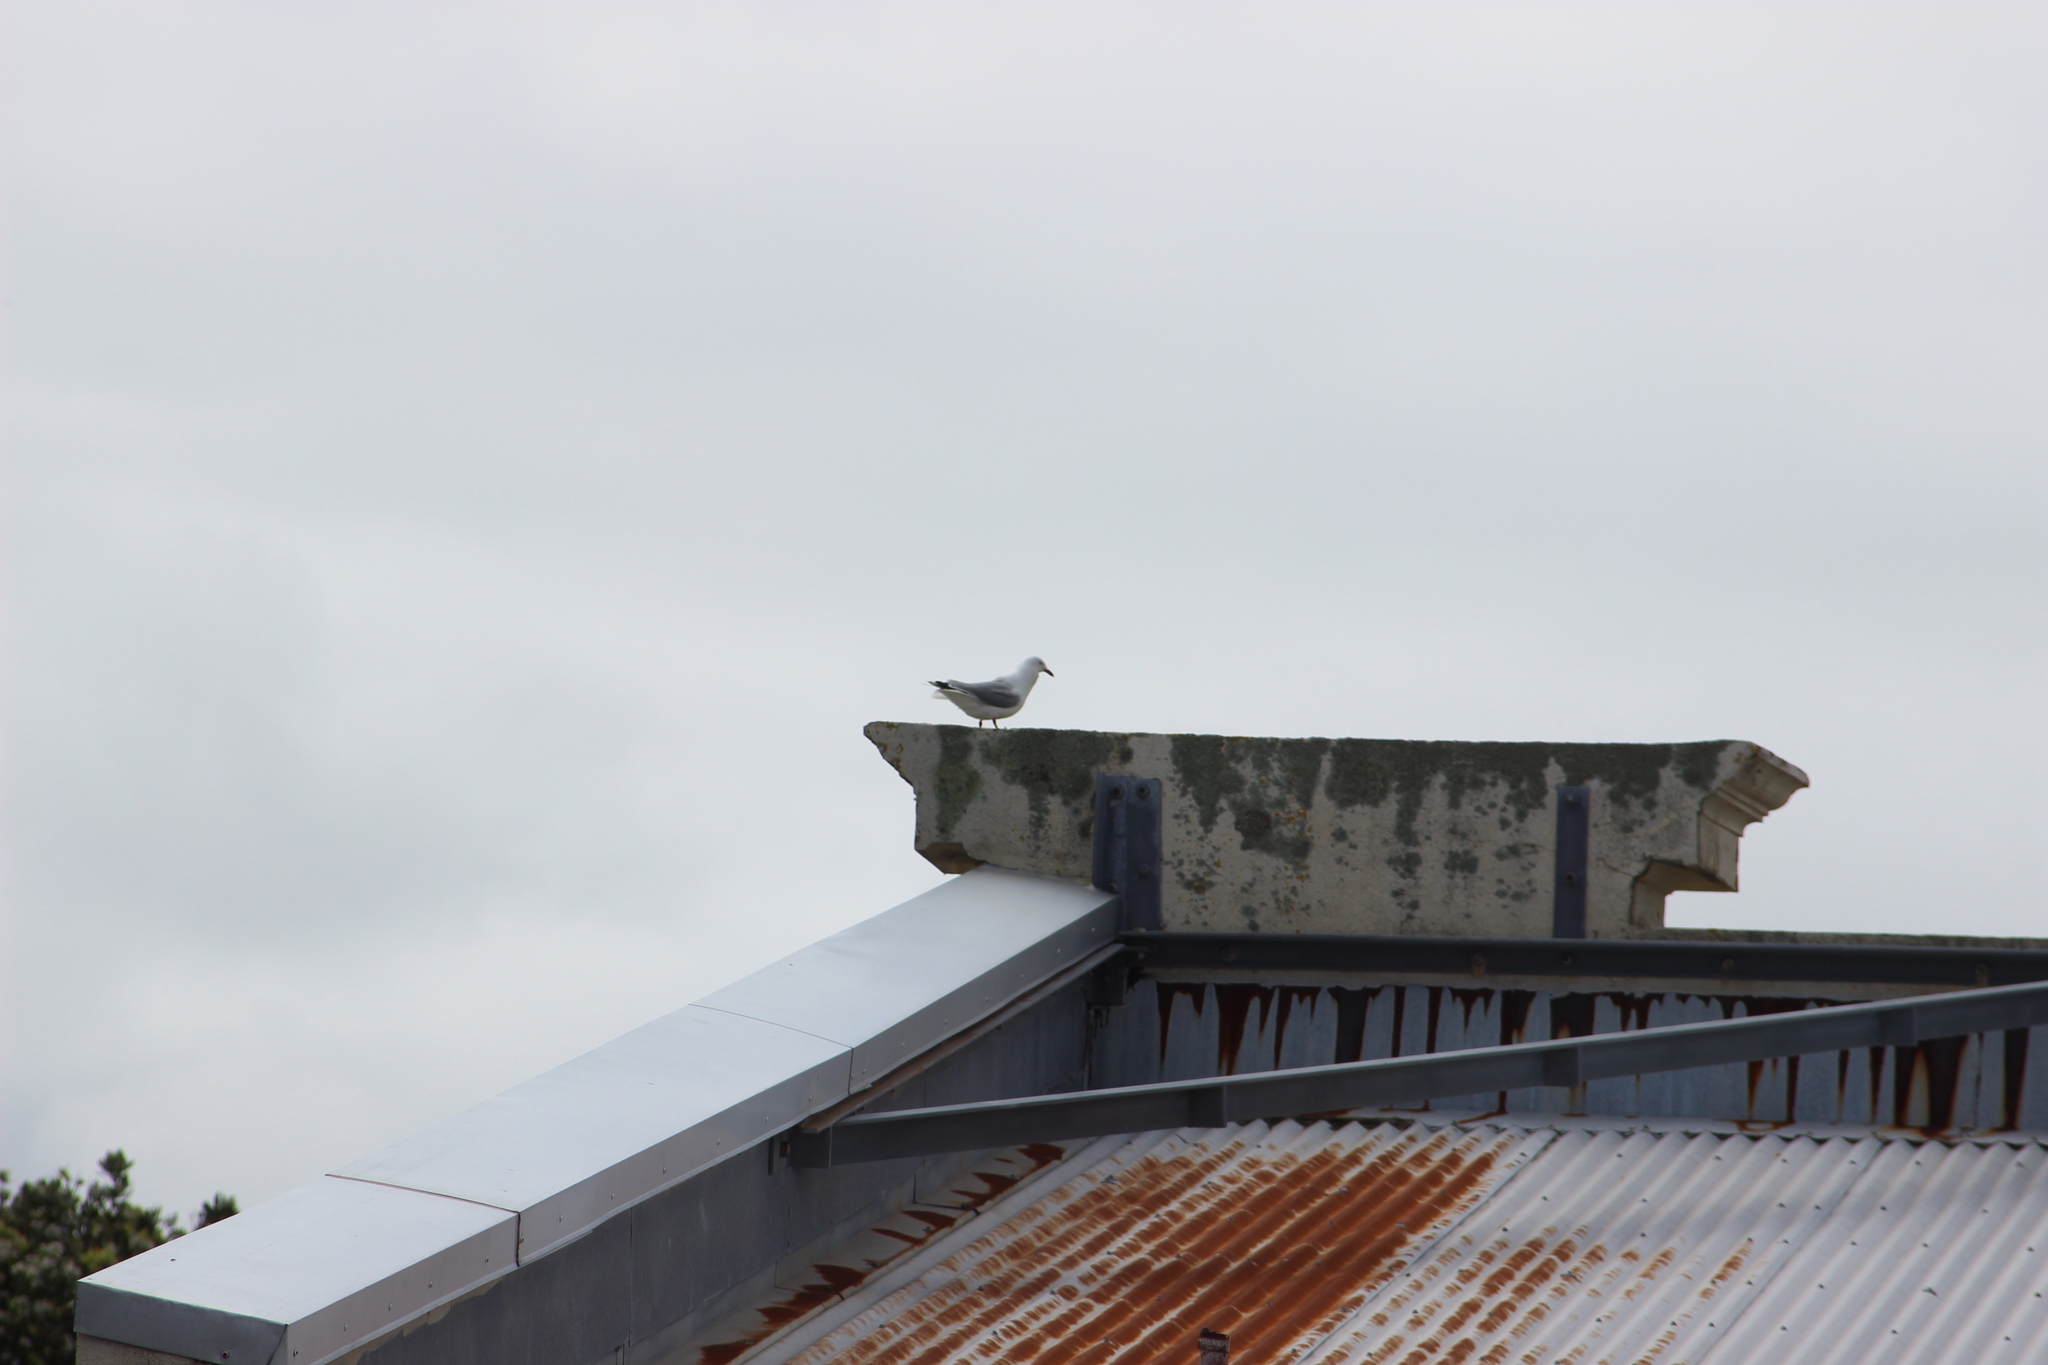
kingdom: Animalia
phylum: Chordata
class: Aves
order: Charadriiformes
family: Laridae
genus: Chroicocephalus
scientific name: Chroicocephalus novaehollandiae
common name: Silver gull
